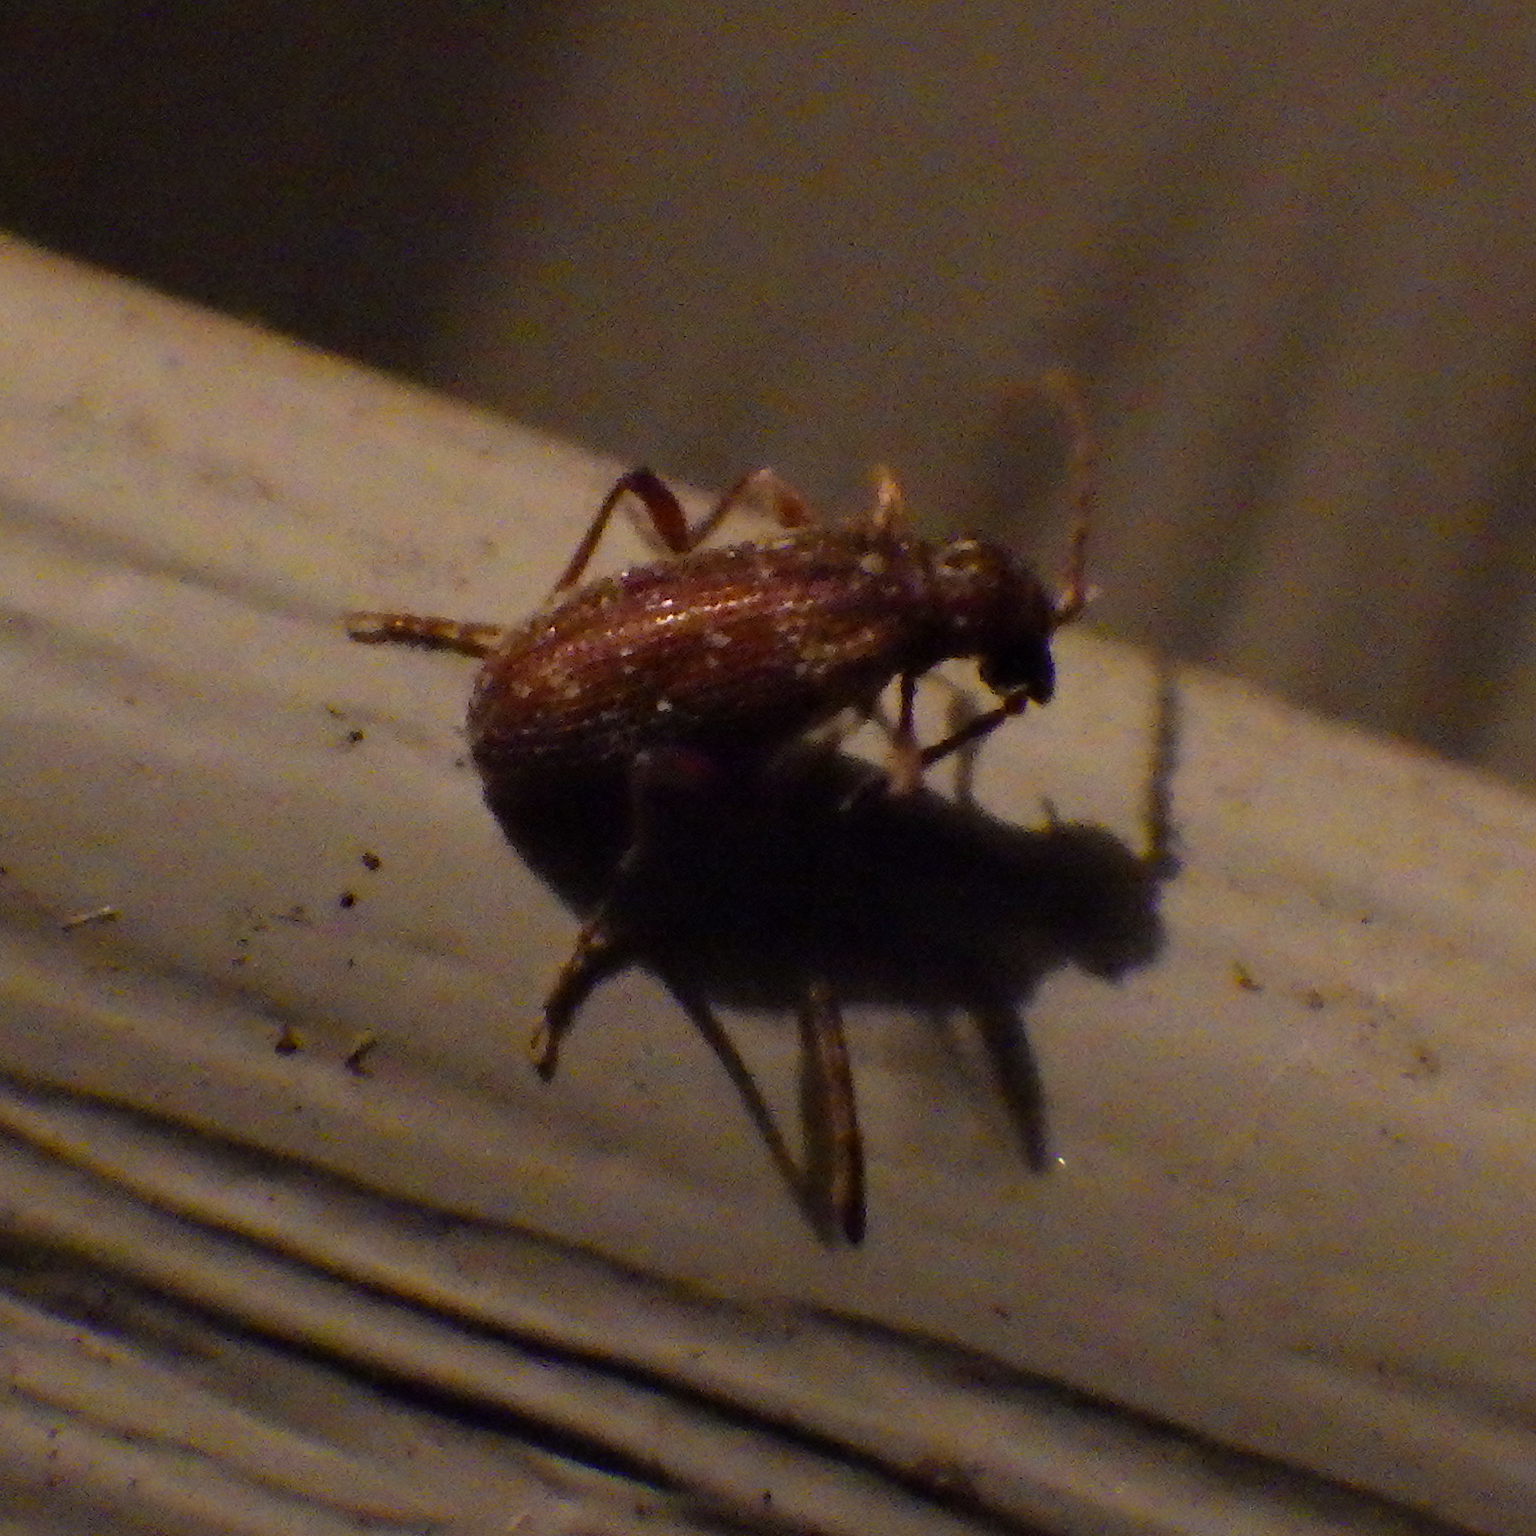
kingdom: Animalia
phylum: Arthropoda
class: Insecta
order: Coleoptera
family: Ptinidae
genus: Ptinus
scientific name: Ptinus fur
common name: White-marked spider beetle
